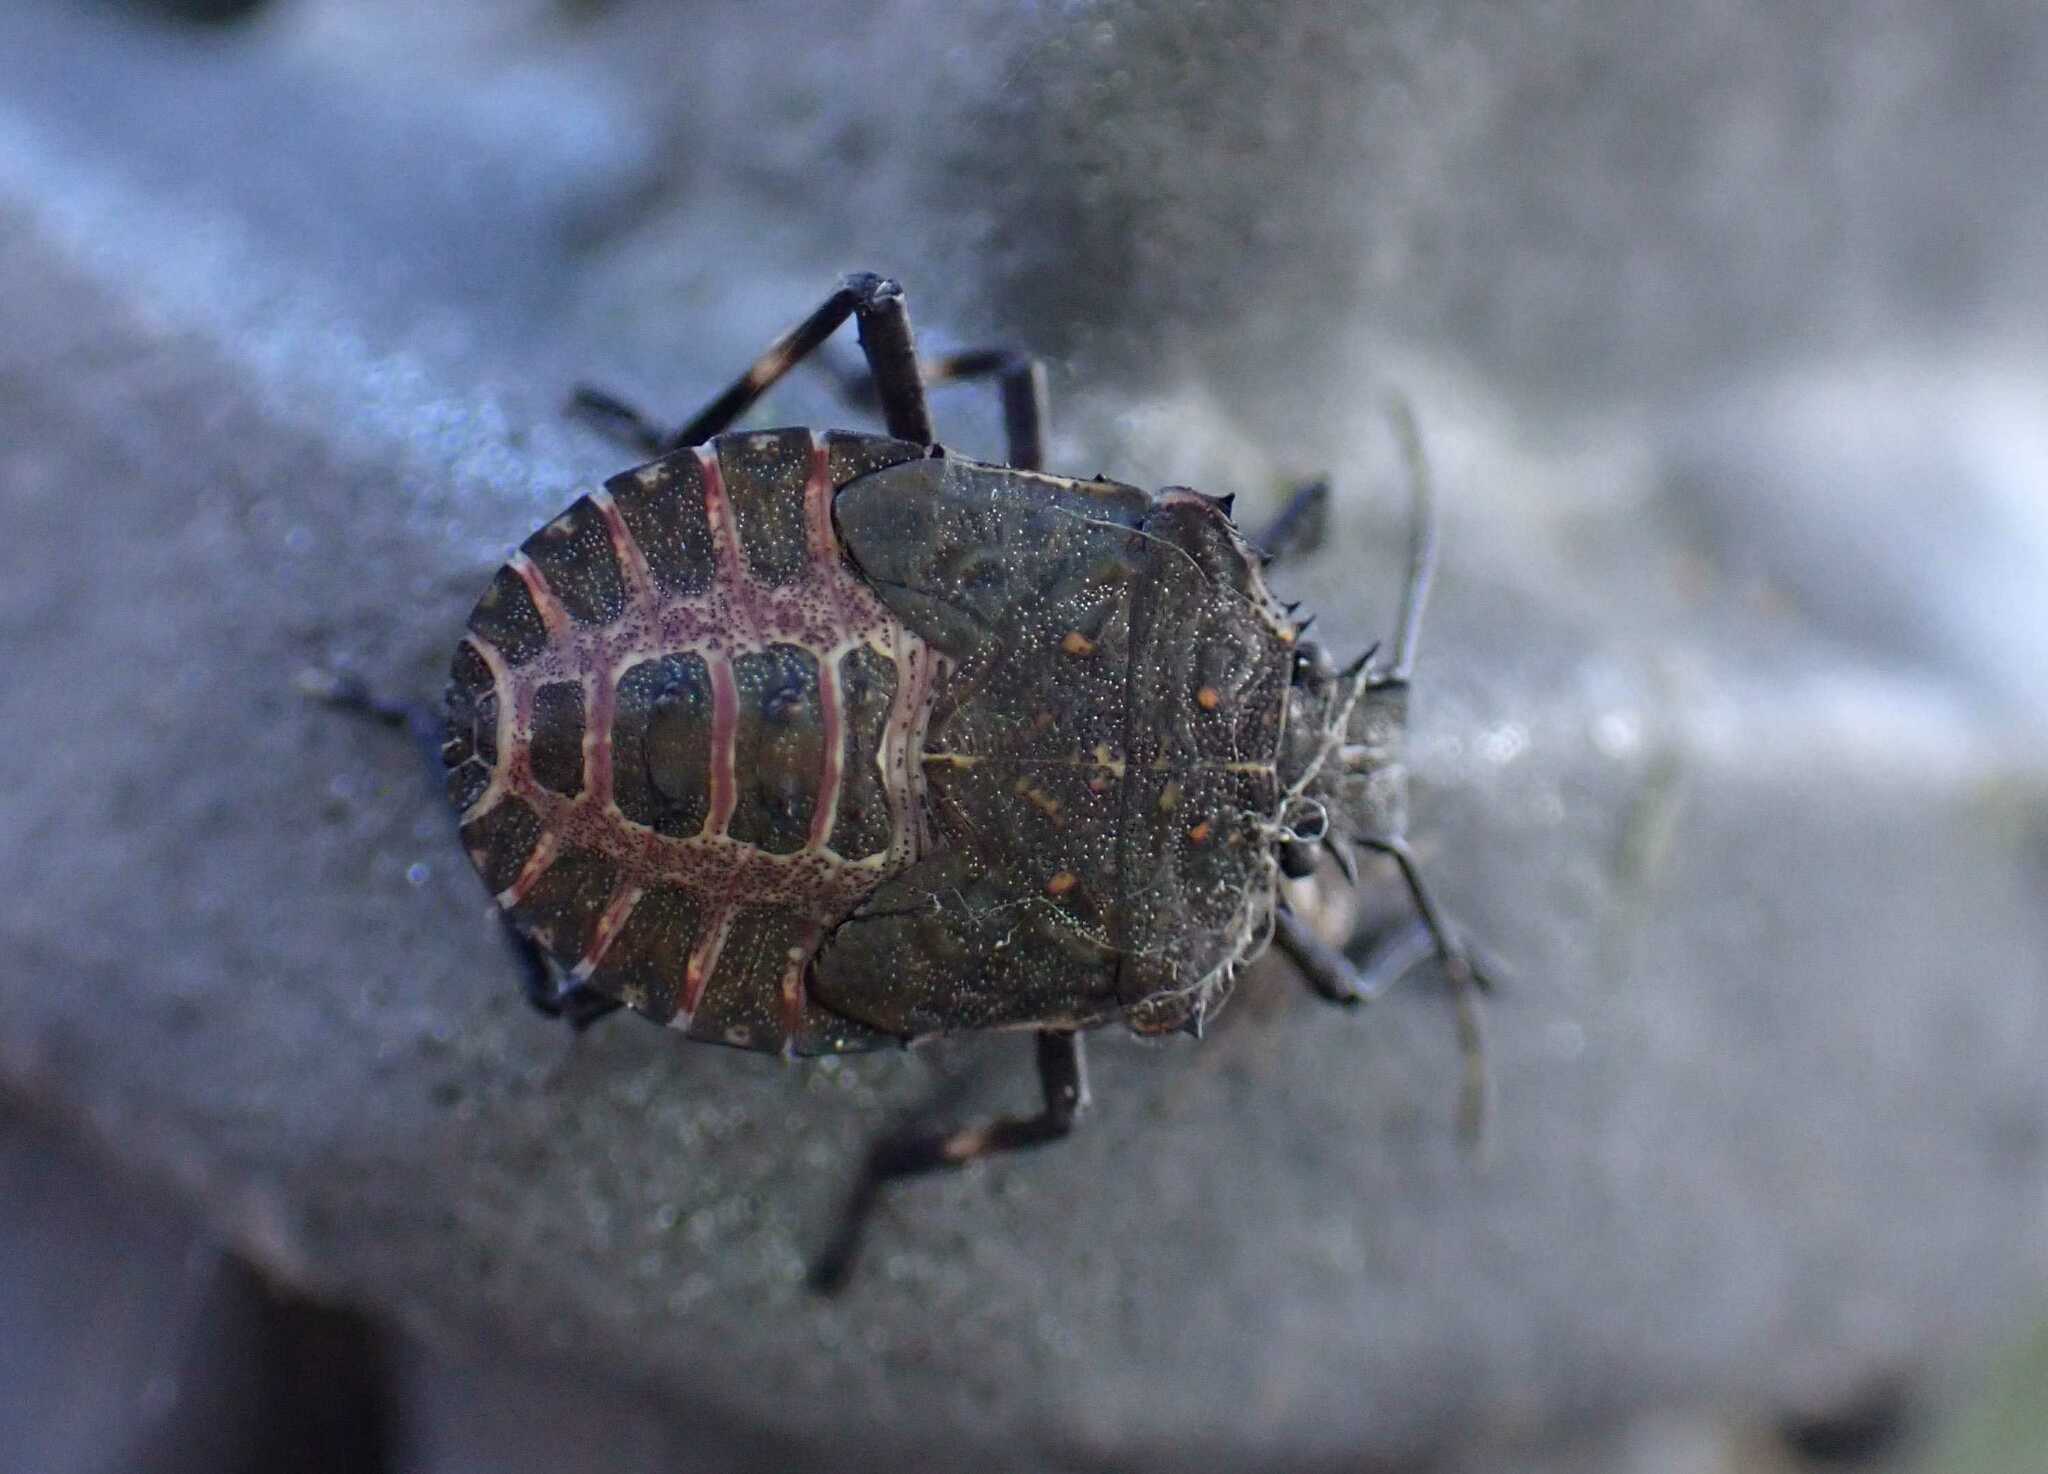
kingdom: Animalia
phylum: Arthropoda
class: Insecta
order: Hemiptera
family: Pentatomidae
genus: Halyomorpha
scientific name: Halyomorpha halys
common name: Brown marmorated stink bug
